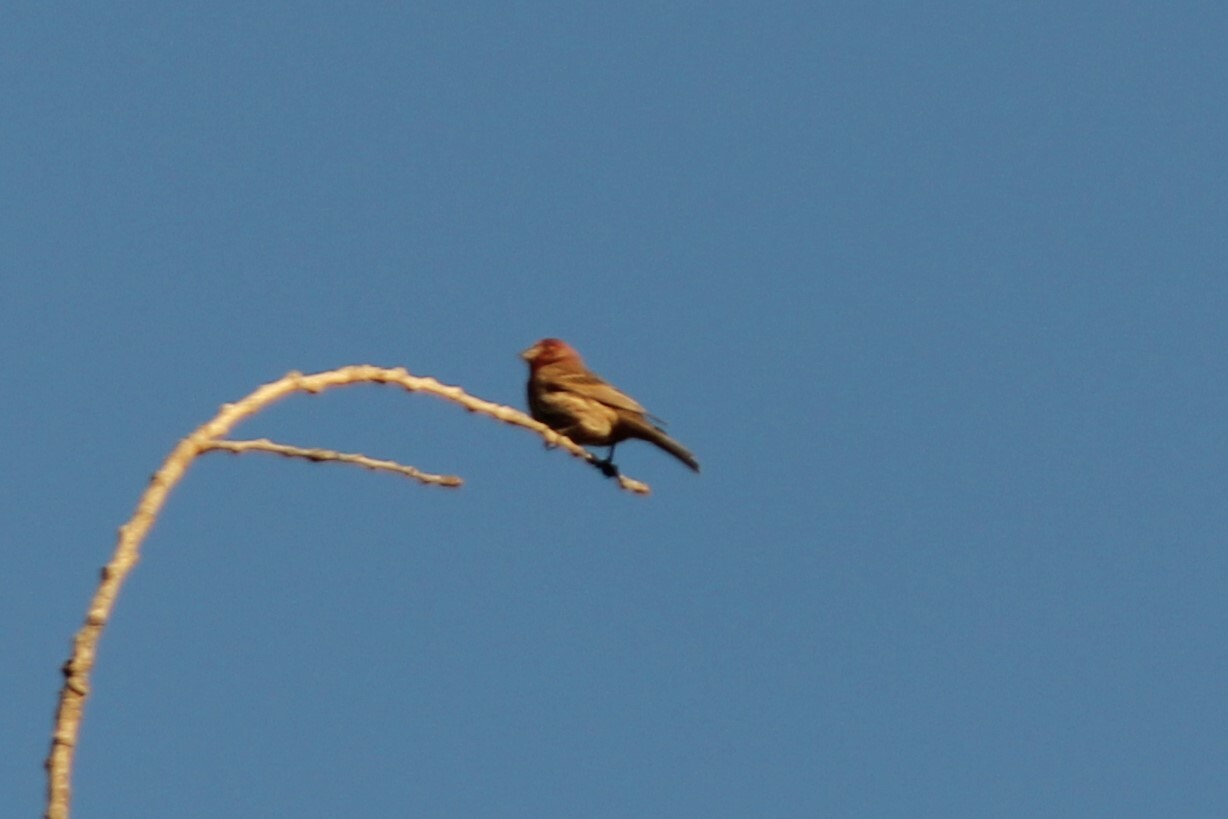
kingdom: Animalia
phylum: Chordata
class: Aves
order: Passeriformes
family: Fringillidae
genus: Haemorhous
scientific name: Haemorhous mexicanus
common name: House finch
